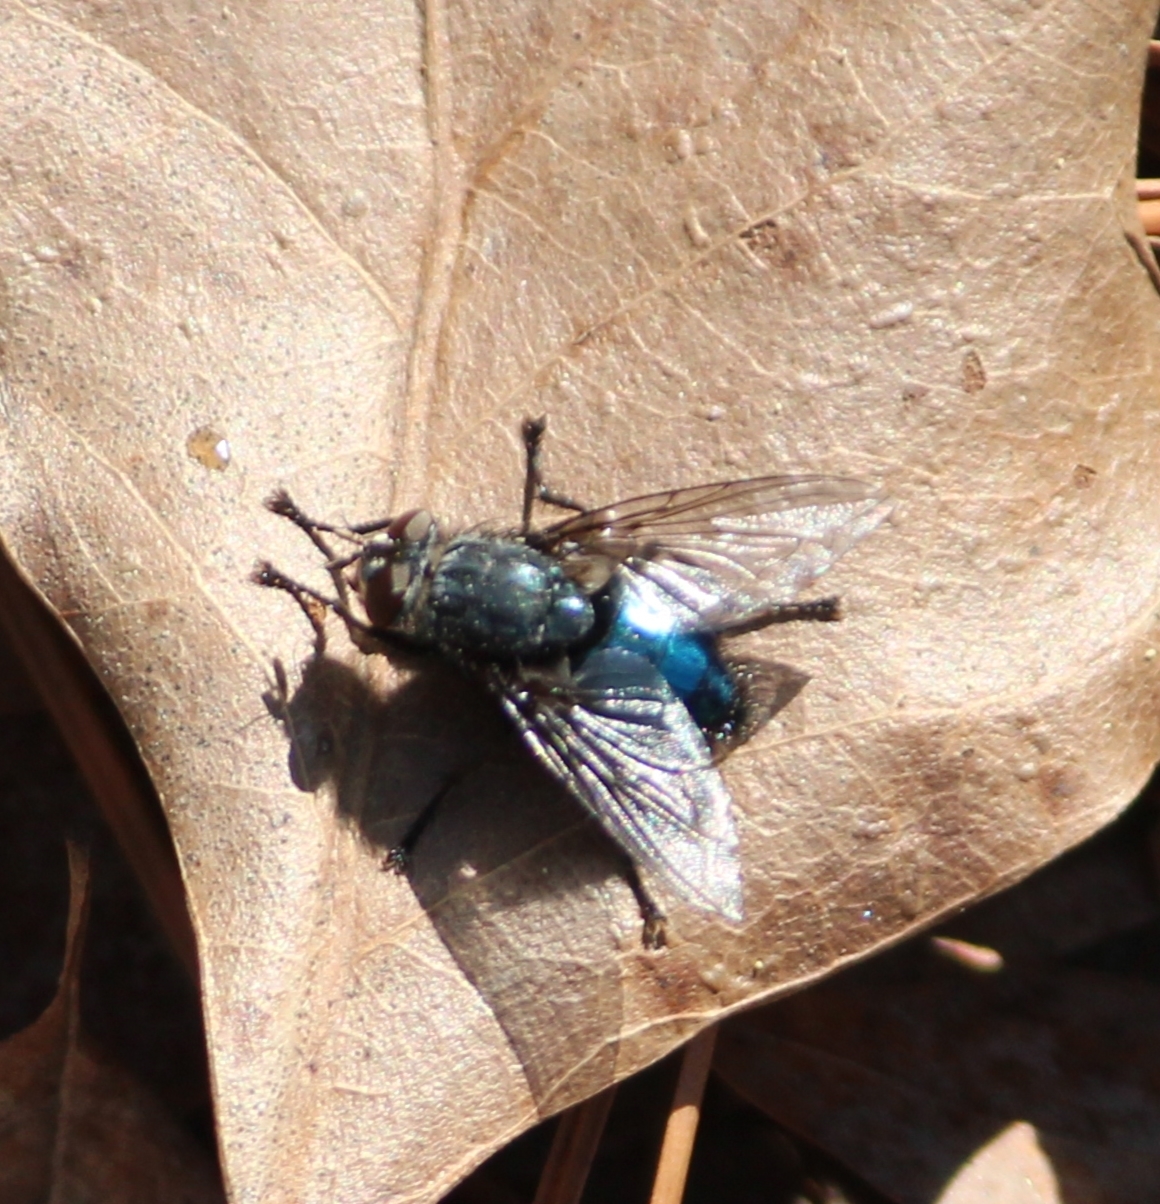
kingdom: Animalia
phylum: Arthropoda
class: Insecta
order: Diptera
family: Calliphoridae
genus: Cynomya
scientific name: Cynomya cadaverina
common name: Shiny blue bottle fly
